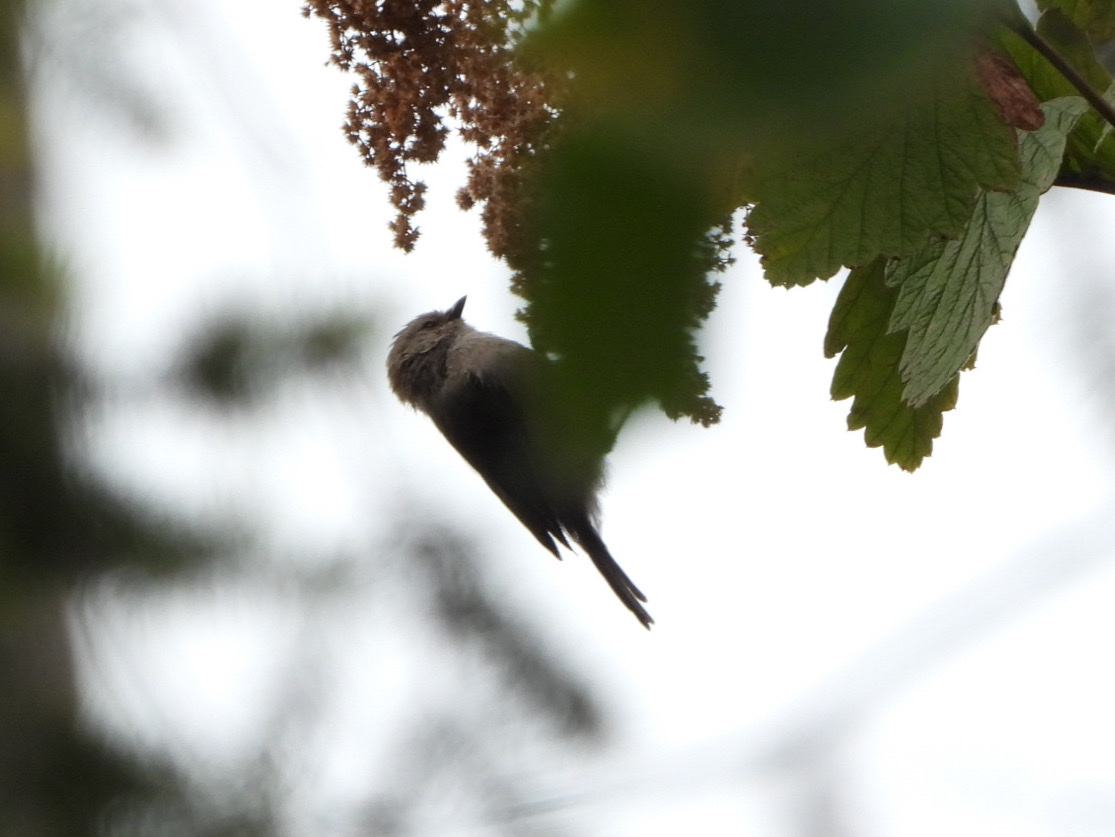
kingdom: Animalia
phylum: Chordata
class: Aves
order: Passeriformes
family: Aegithalidae
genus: Psaltriparus
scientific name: Psaltriparus minimus
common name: American bushtit
